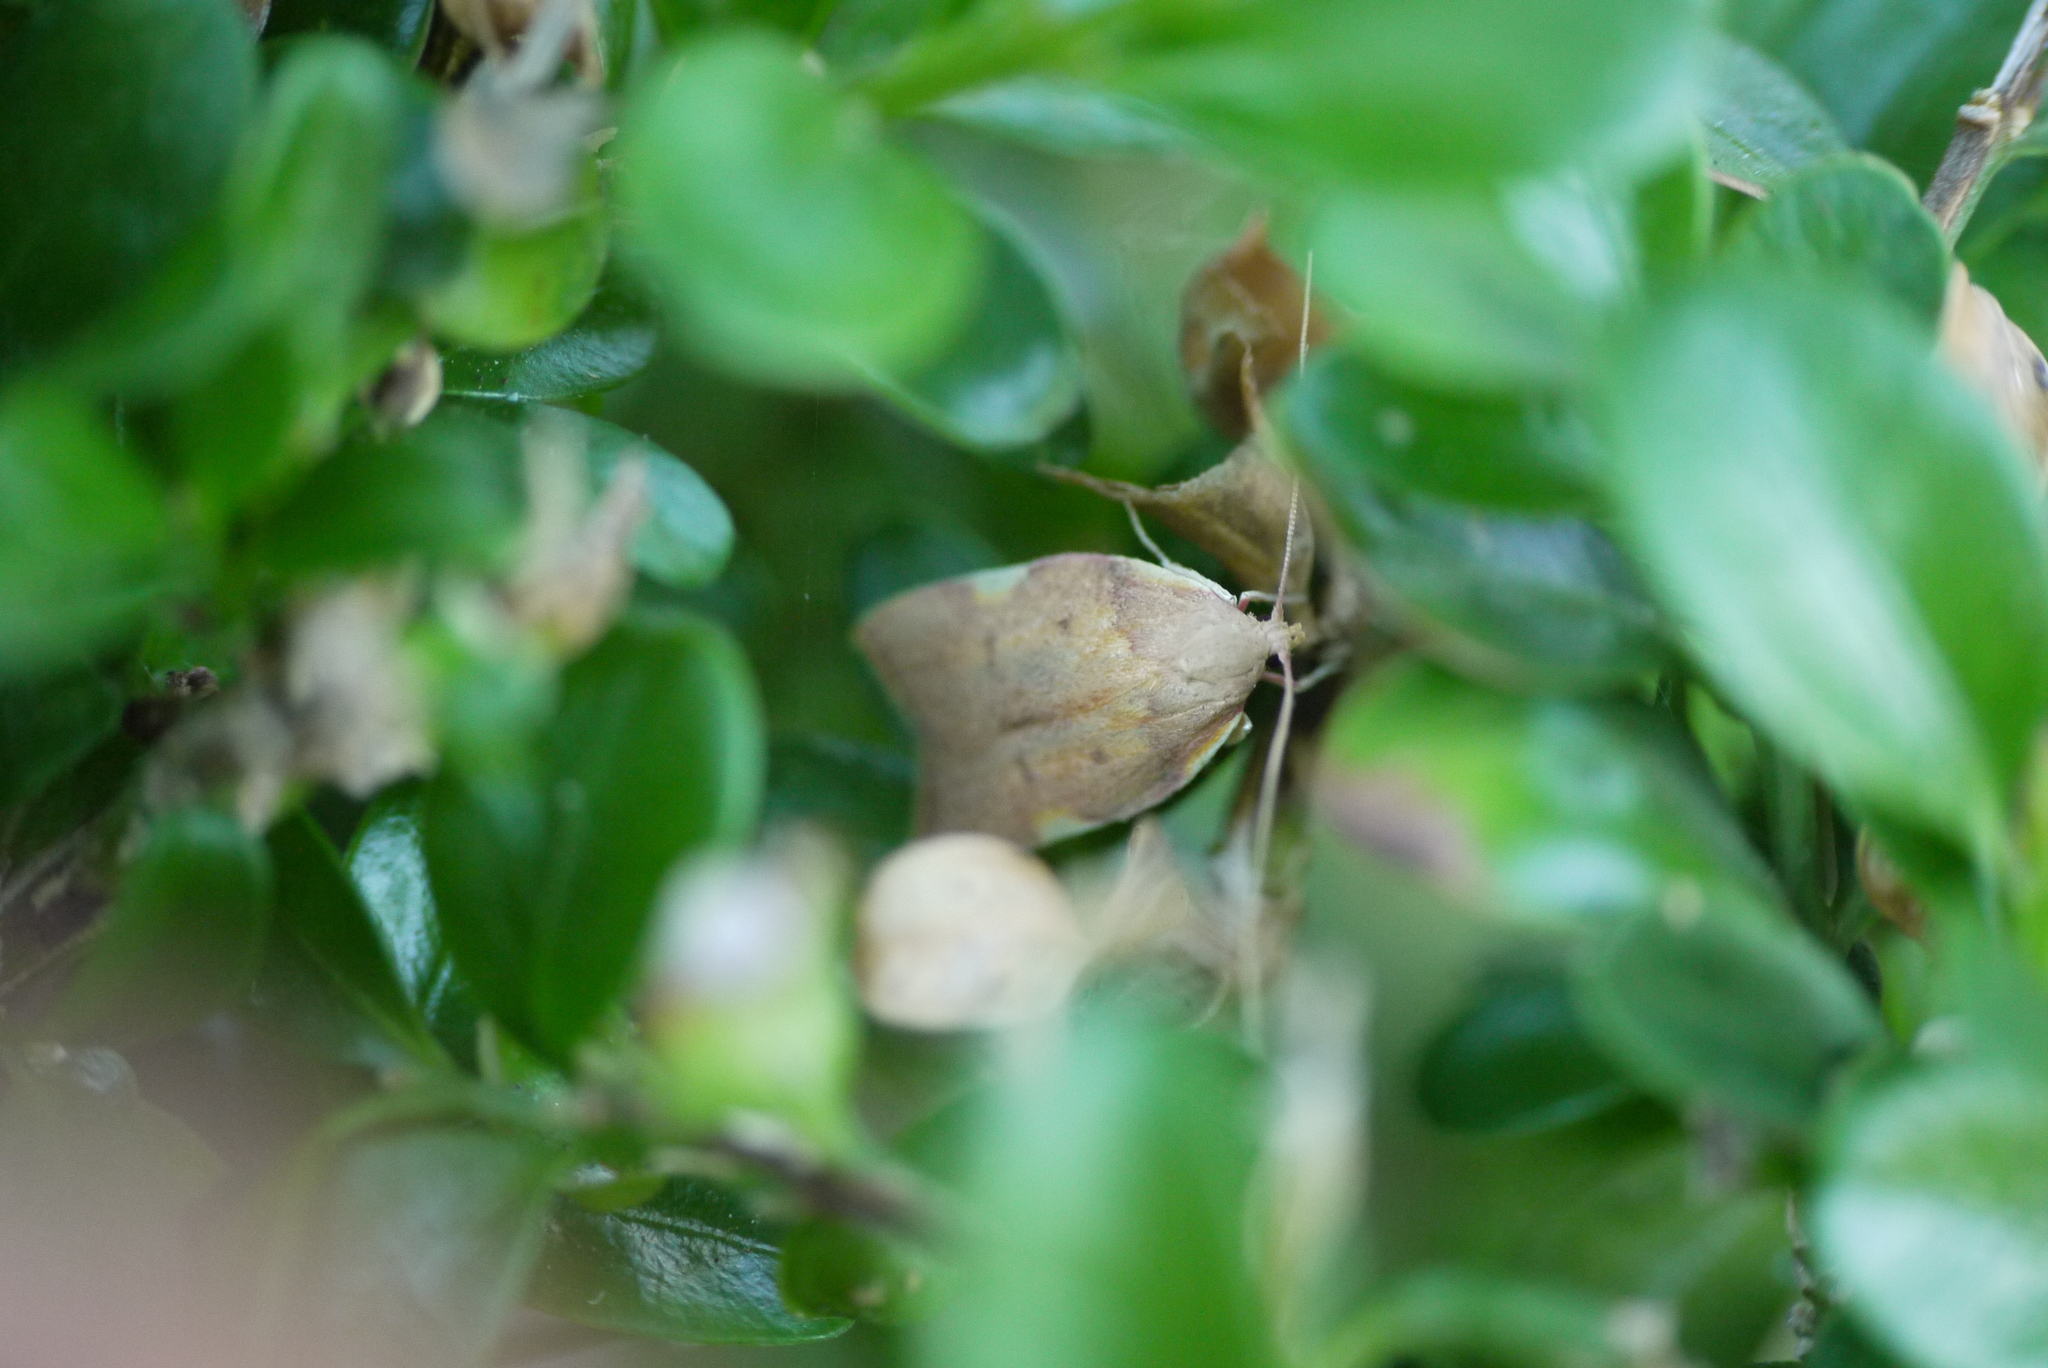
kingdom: Animalia
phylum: Arthropoda
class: Insecta
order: Lepidoptera
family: Peleopodidae
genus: Carcina
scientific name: Carcina quercana
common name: Moth
